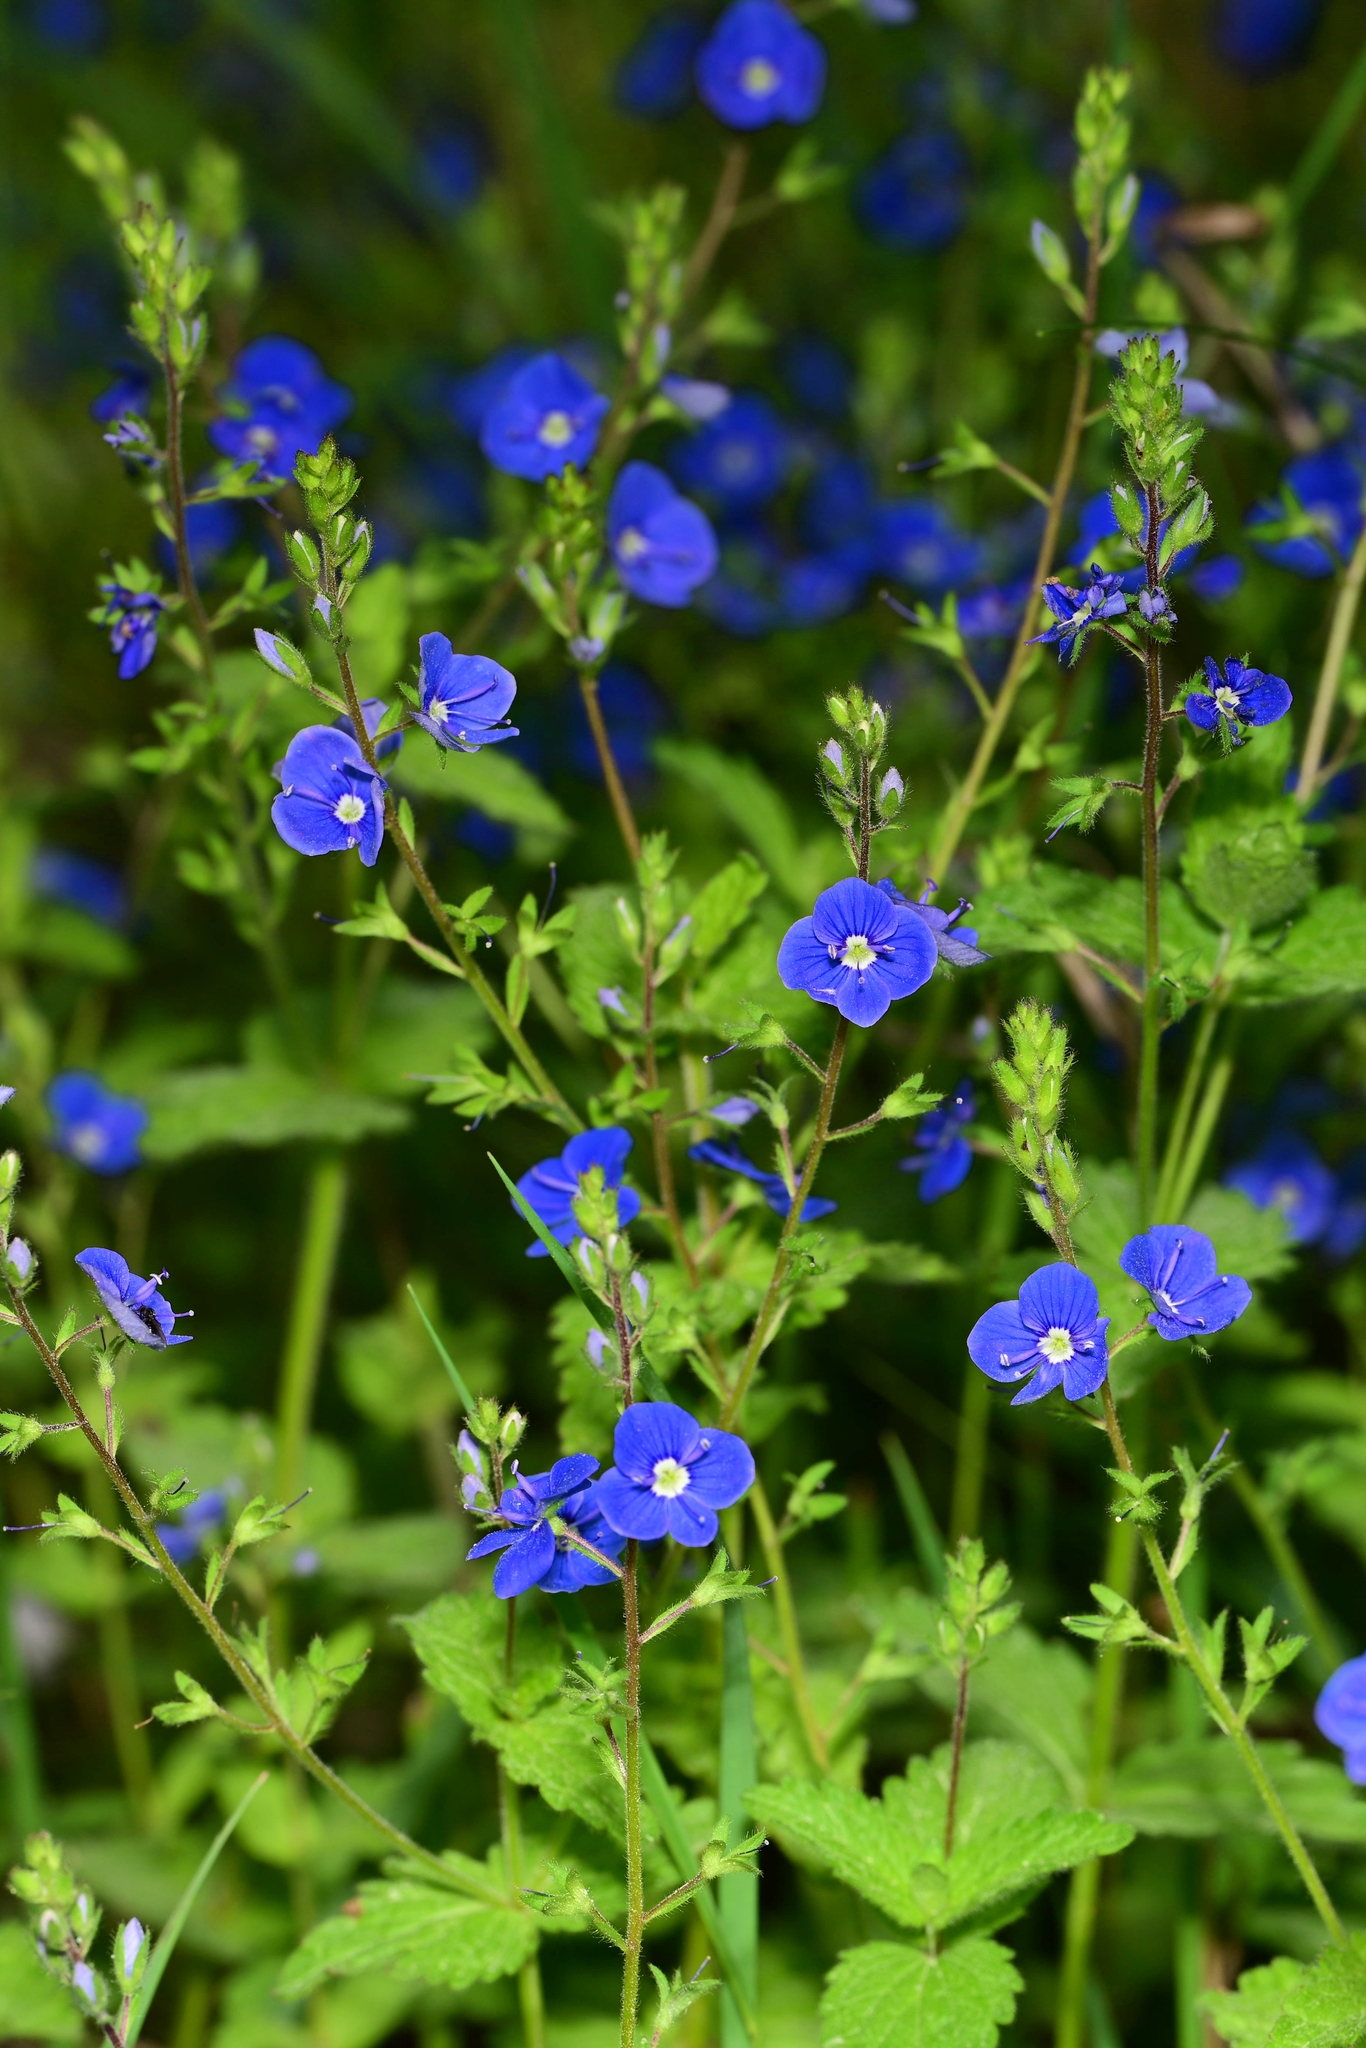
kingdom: Plantae
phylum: Tracheophyta
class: Magnoliopsida
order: Lamiales
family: Plantaginaceae
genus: Veronica
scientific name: Veronica chamaedrys
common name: Germander speedwell
